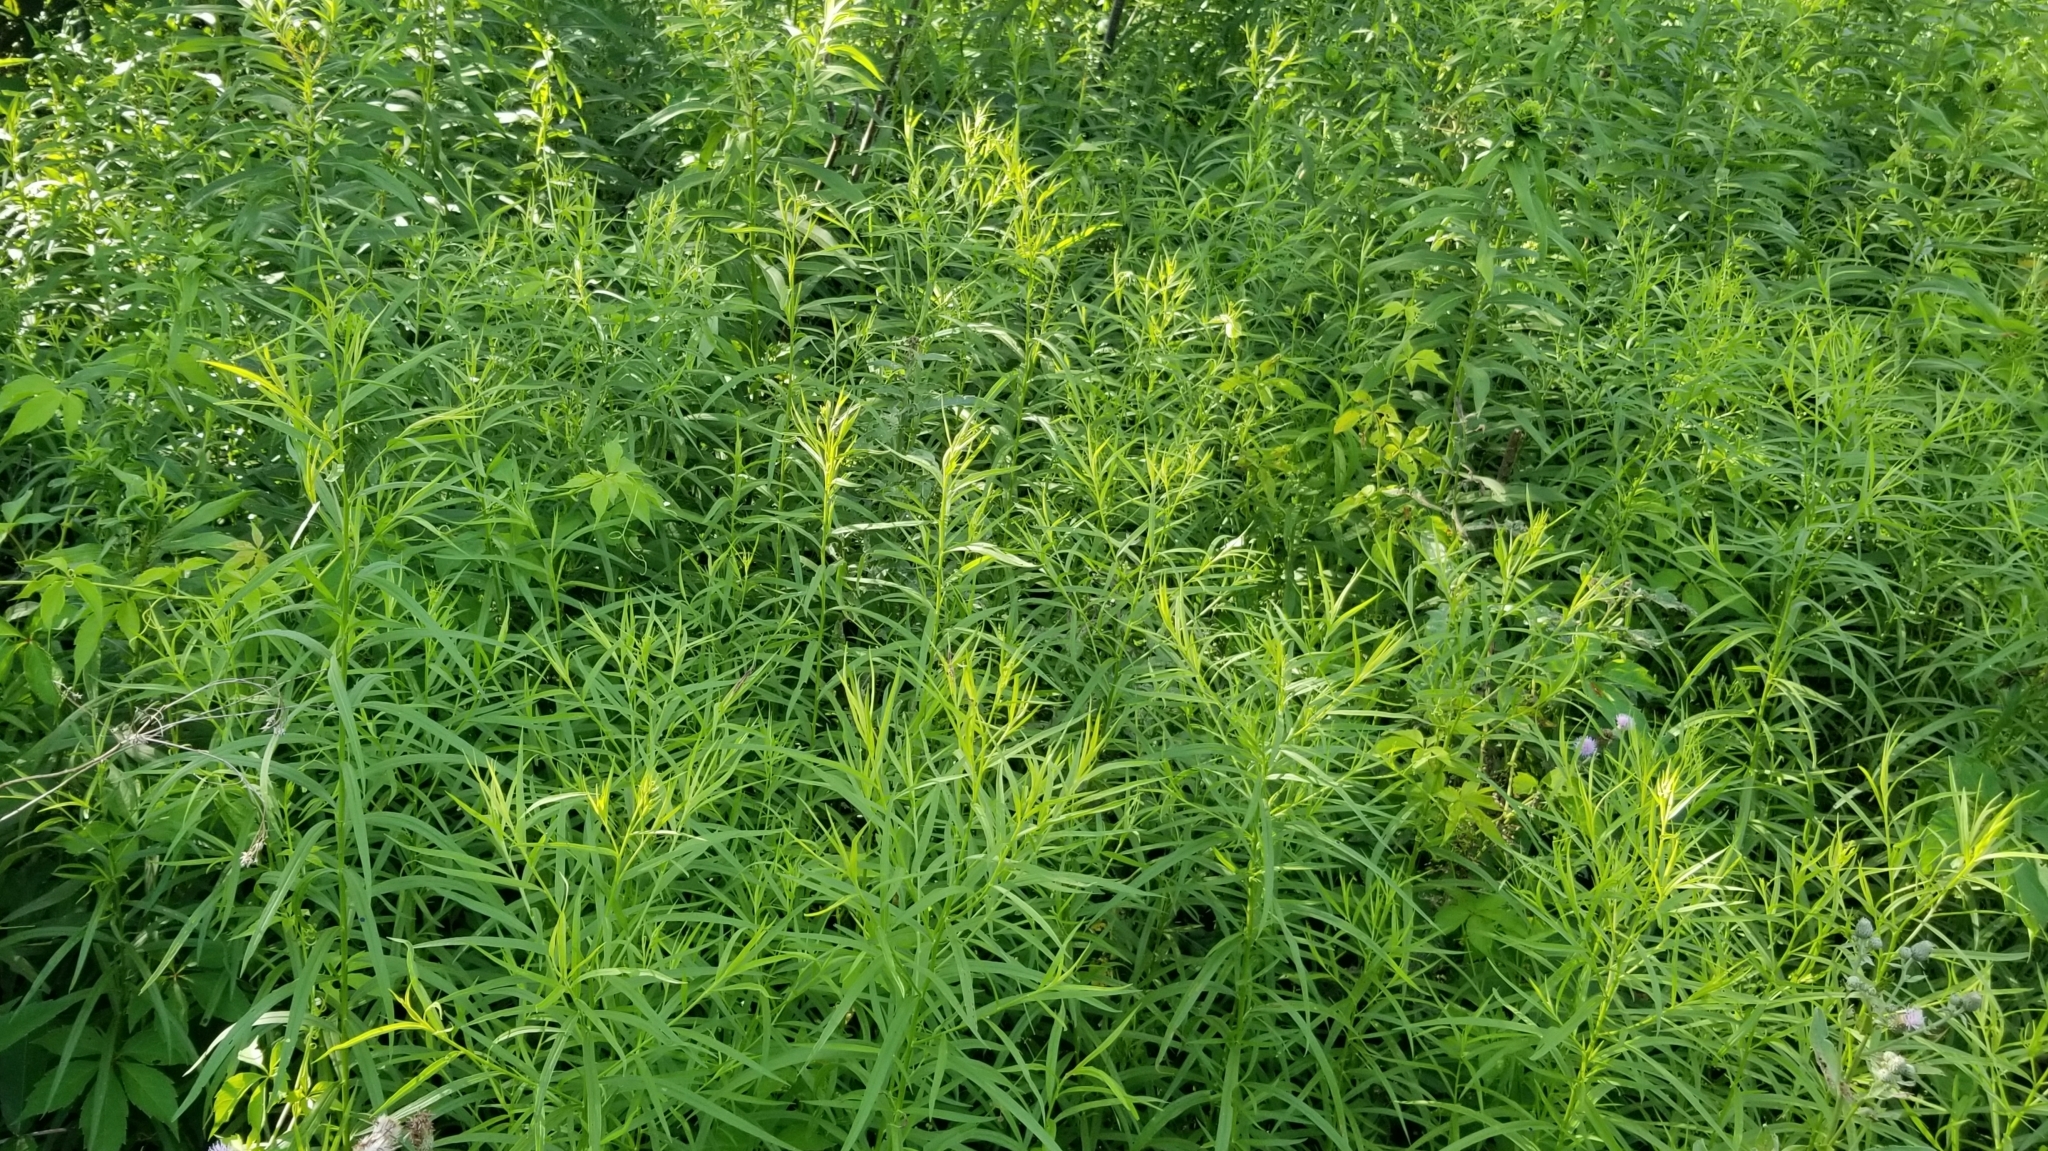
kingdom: Plantae
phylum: Tracheophyta
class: Magnoliopsida
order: Asterales
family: Asteraceae
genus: Euthamia
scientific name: Euthamia graminifolia
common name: Common goldentop
